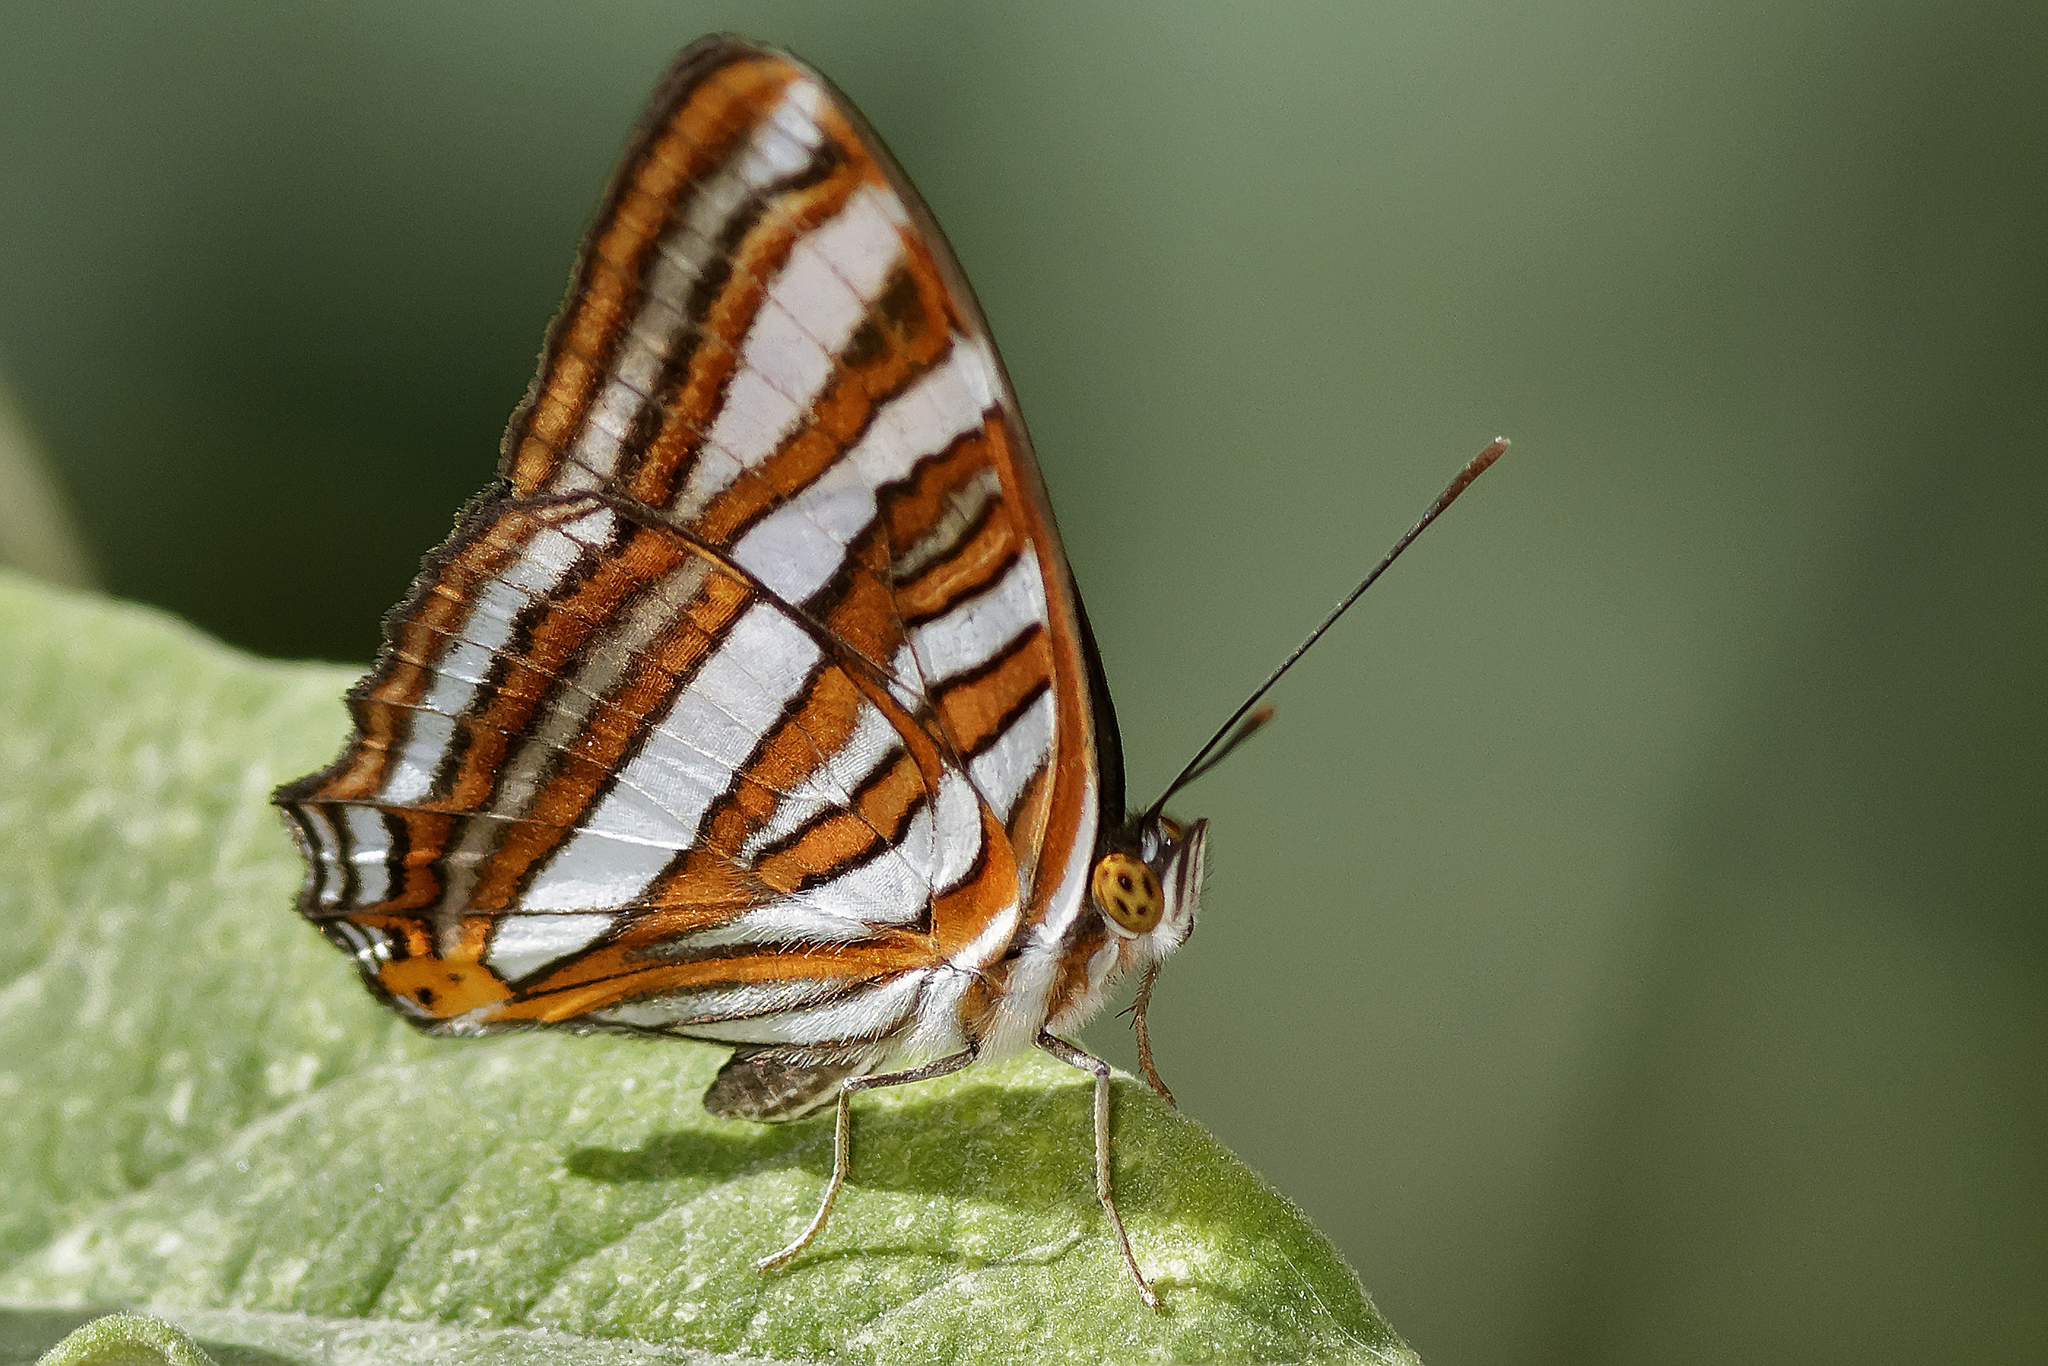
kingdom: Animalia
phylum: Arthropoda
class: Insecta
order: Lepidoptera
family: Nymphalidae
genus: Limenitis
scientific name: Limenitis syma
